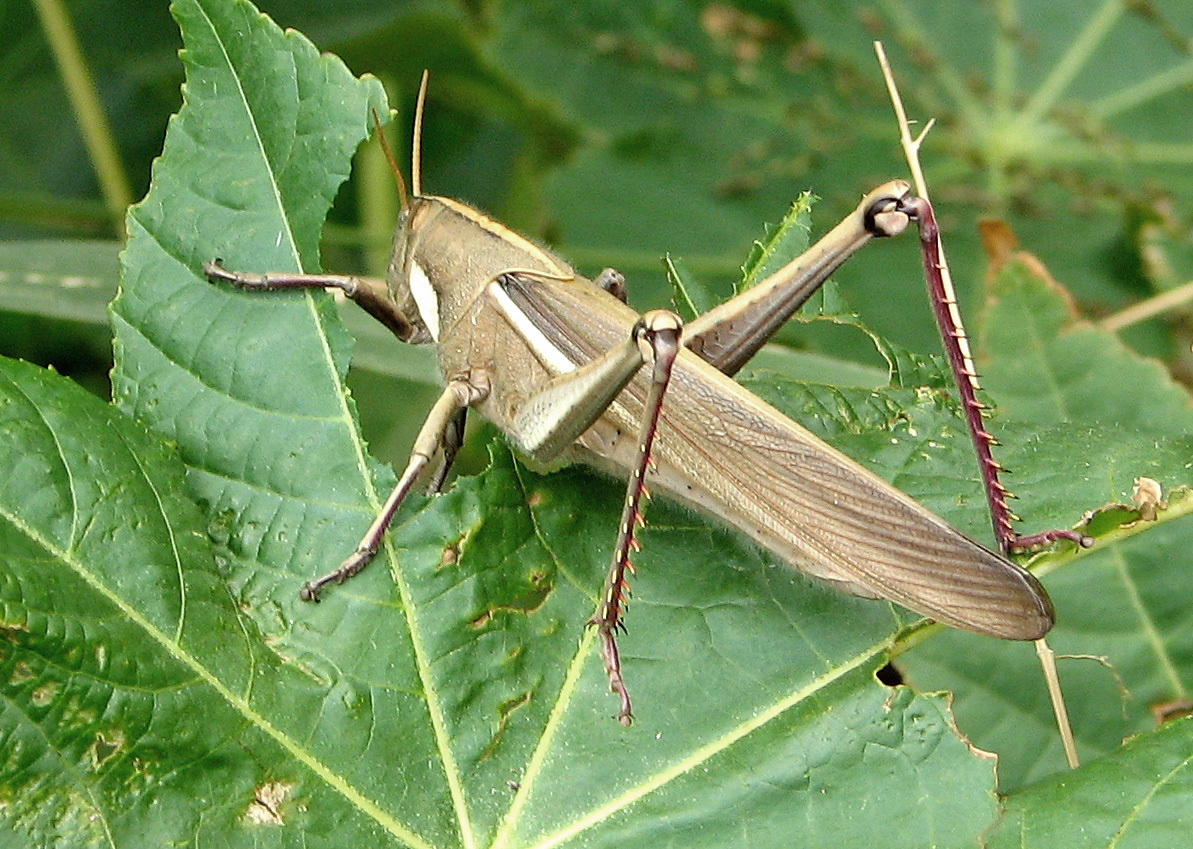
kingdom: Animalia
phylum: Arthropoda
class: Insecta
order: Orthoptera
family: Acrididae
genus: Schistocerca
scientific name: Schistocerca flavofasciata
